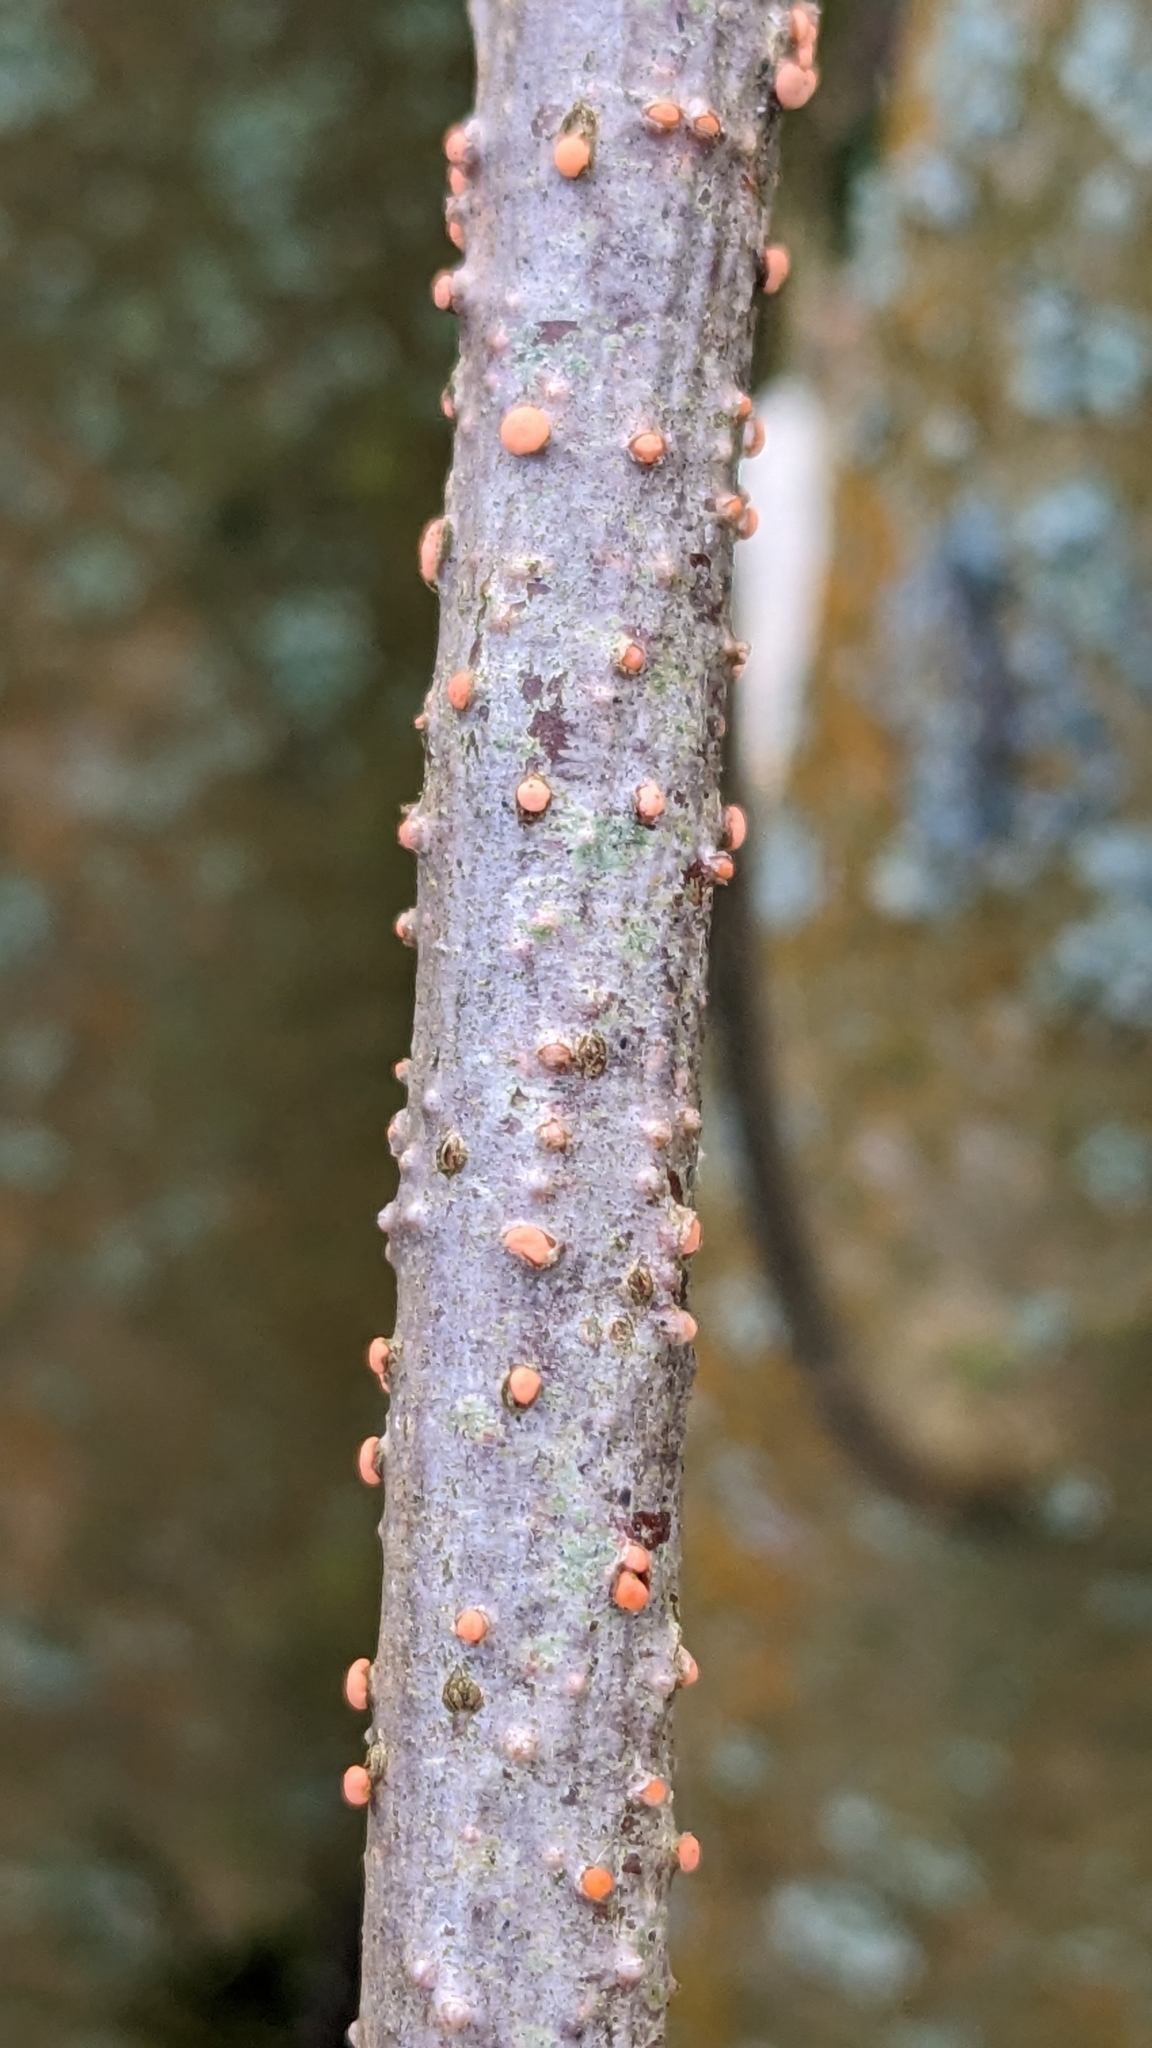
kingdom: Fungi
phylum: Ascomycota
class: Sordariomycetes
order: Hypocreales
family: Nectriaceae
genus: Nectria
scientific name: Nectria cinnabarina
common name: Coral spot
